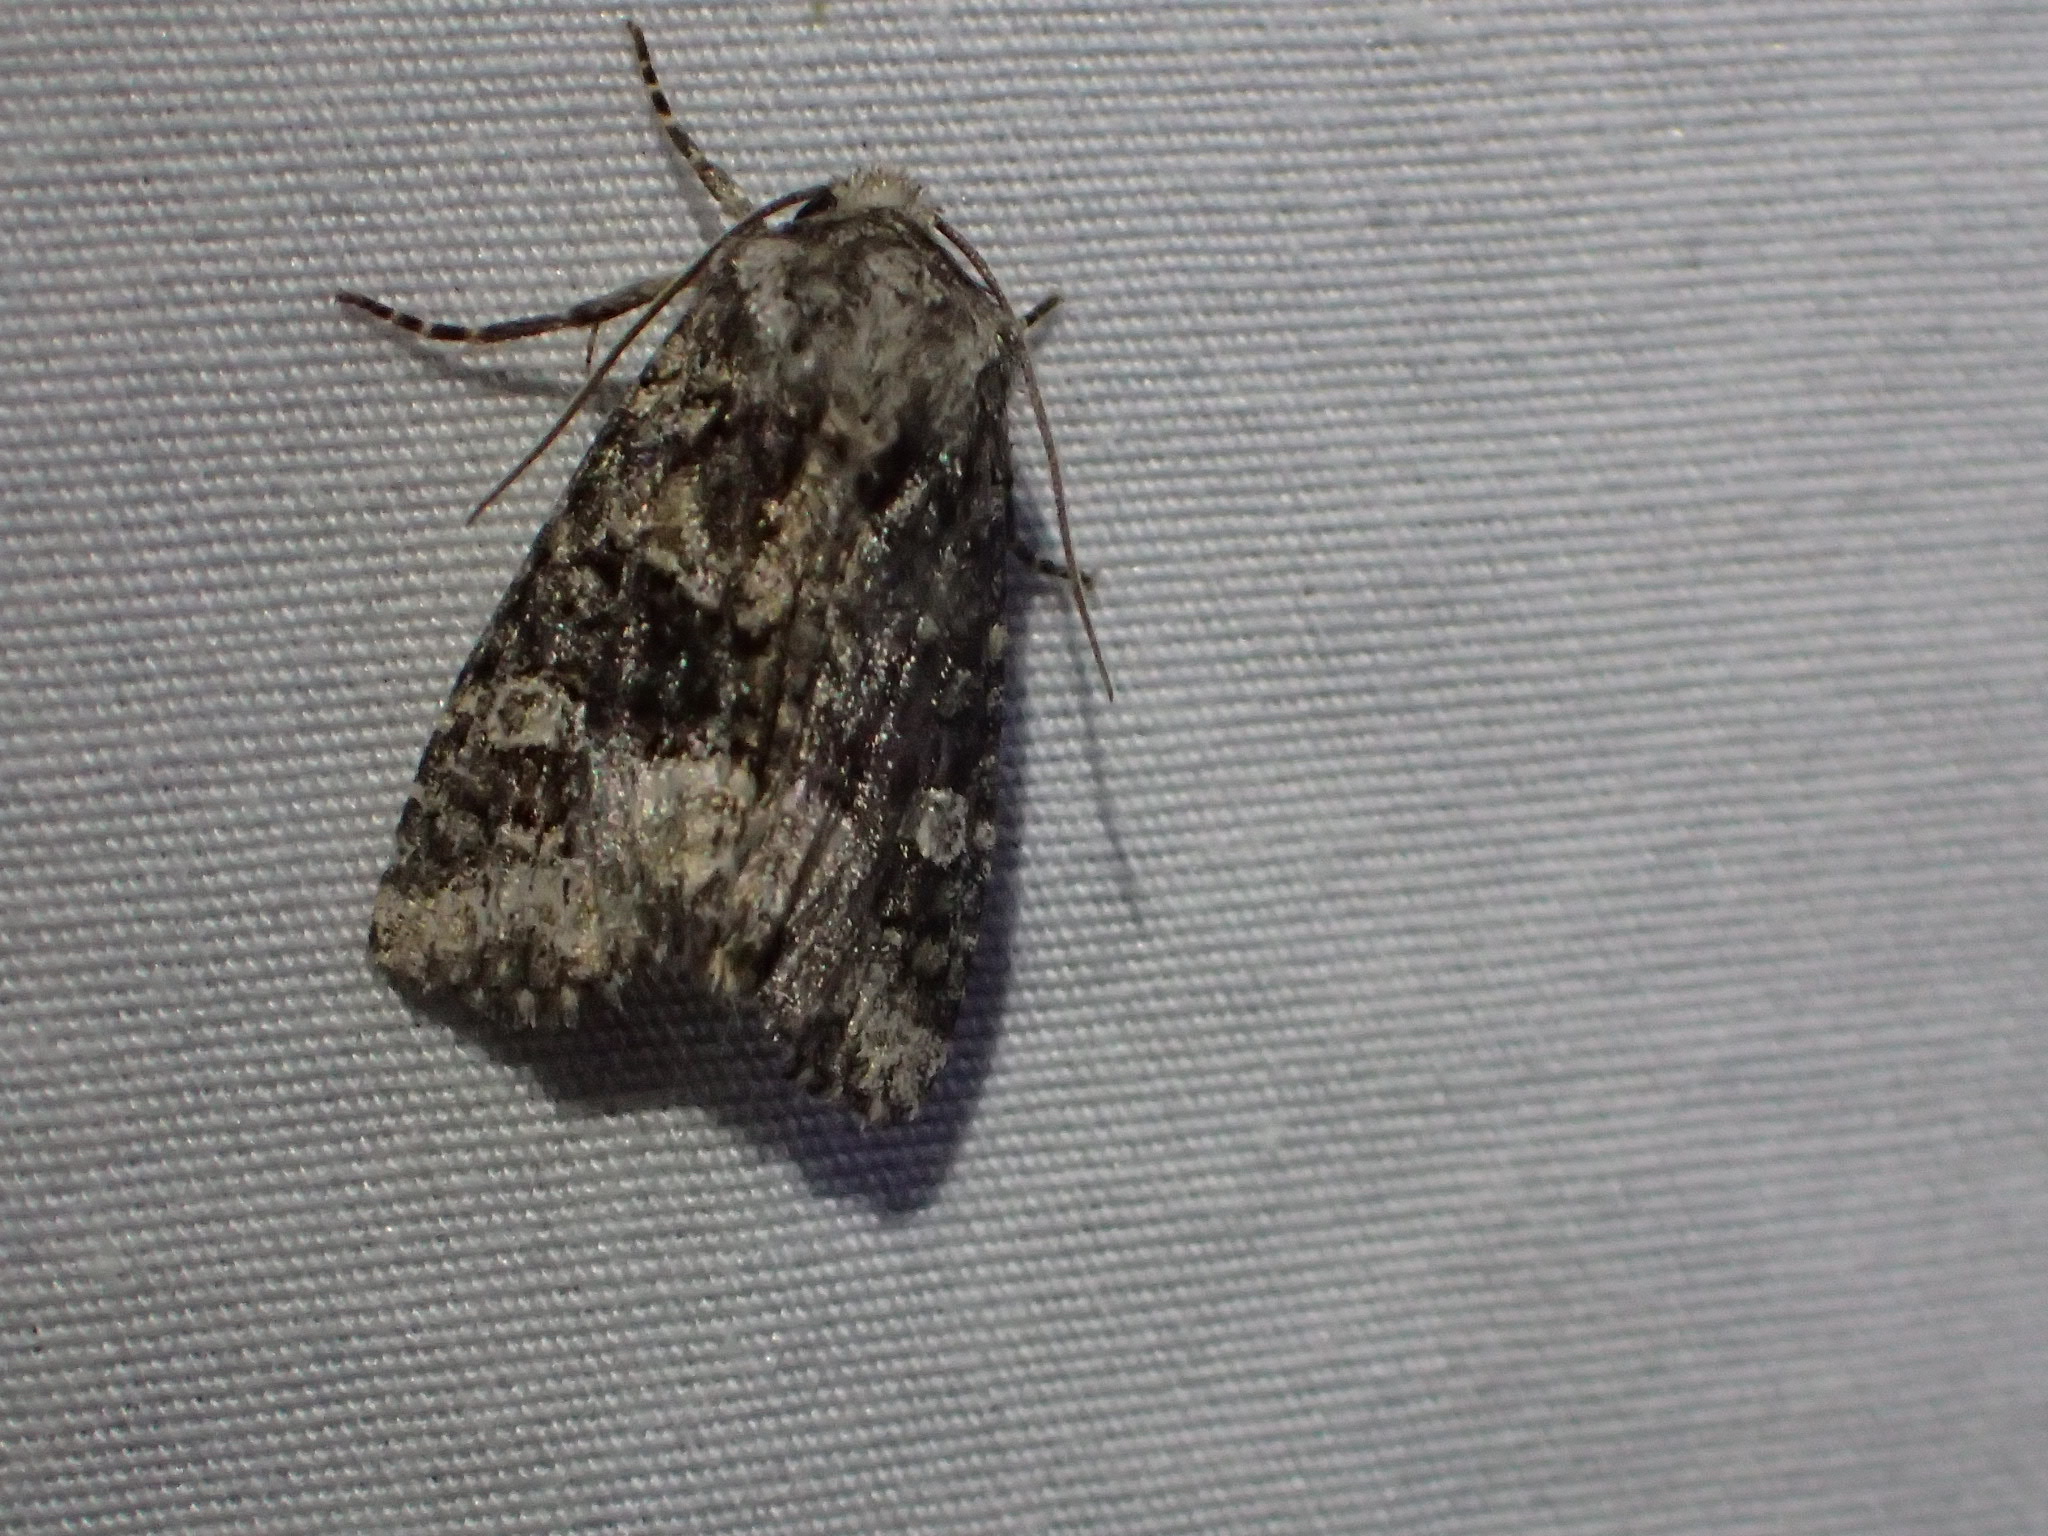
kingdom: Animalia
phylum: Arthropoda
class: Insecta
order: Lepidoptera
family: Noctuidae
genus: Lacinipolia
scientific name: Lacinipolia olivacea
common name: Olive arches moth
